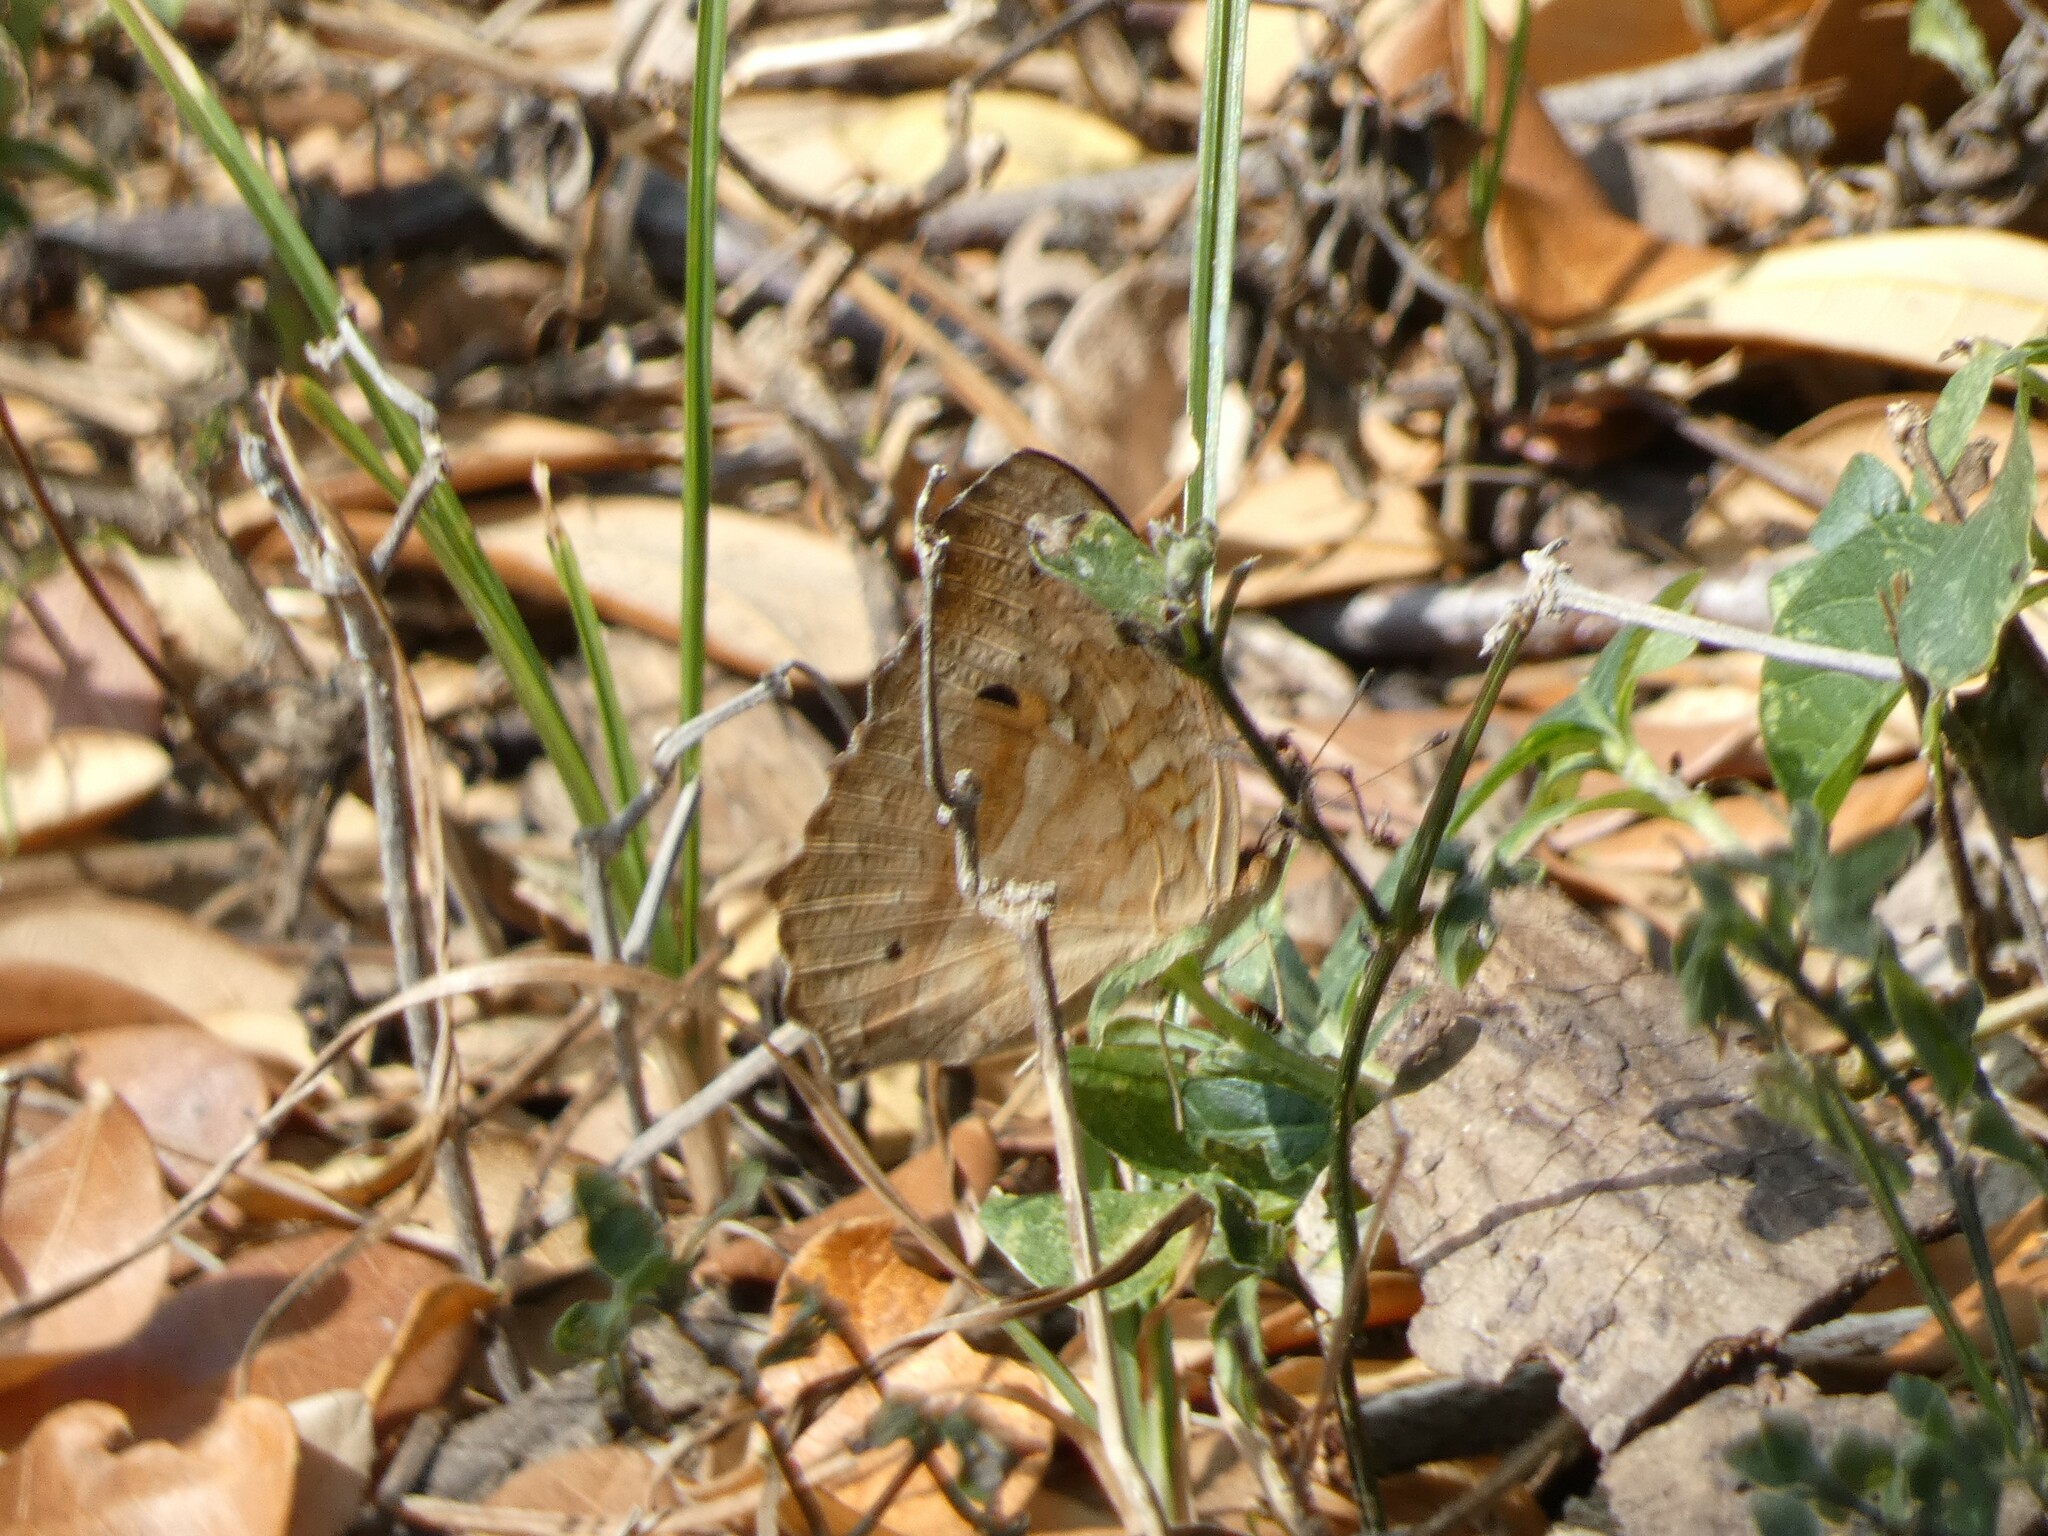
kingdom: Animalia
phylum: Arthropoda
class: Insecta
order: Lepidoptera
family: Nymphalidae
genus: Junonia
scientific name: Junonia lemonias
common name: Lemon pansy
